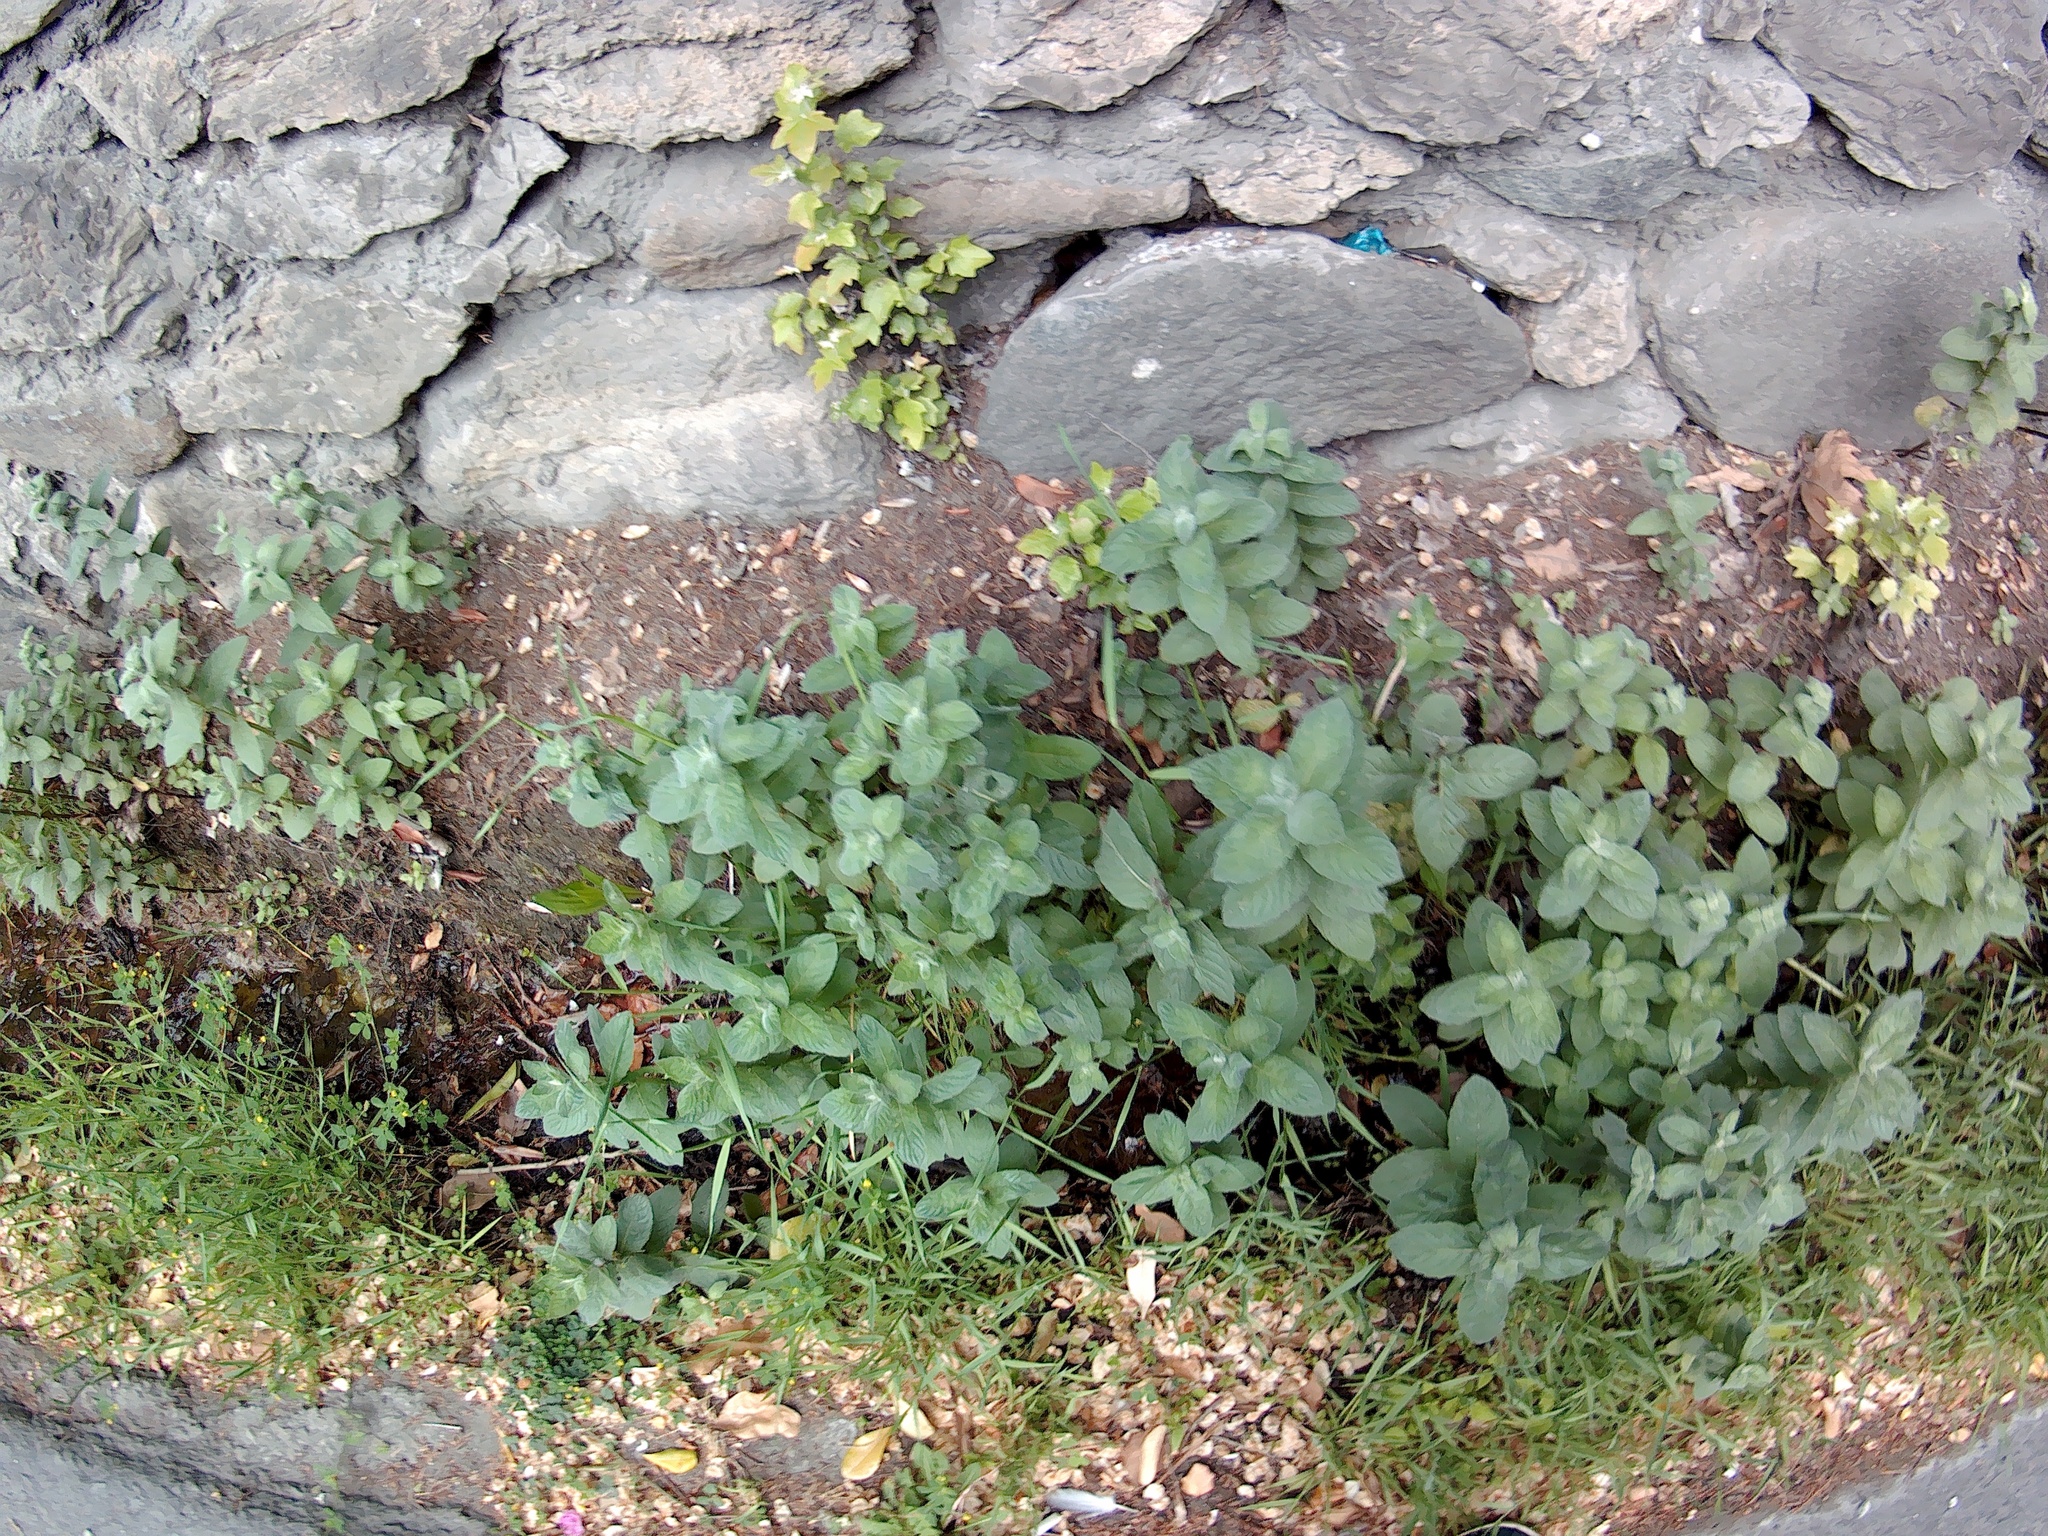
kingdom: Plantae
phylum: Tracheophyta
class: Magnoliopsida
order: Lamiales
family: Lamiaceae
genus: Mentha
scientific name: Mentha longifolia
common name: Horse mint
